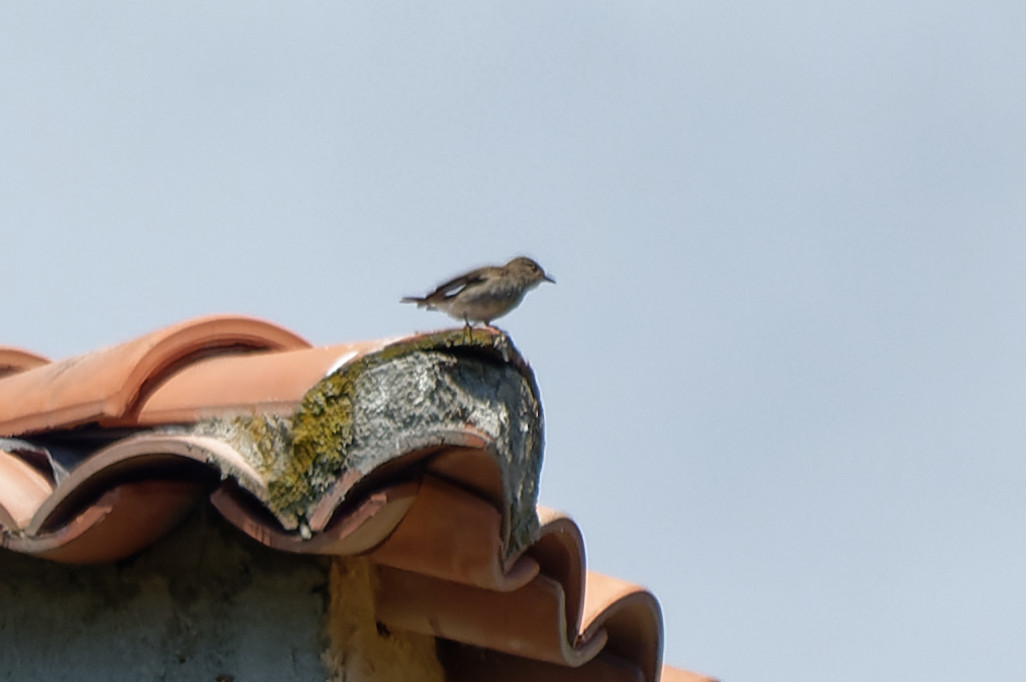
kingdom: Animalia
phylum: Chordata
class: Aves
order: Passeriformes
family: Muscicapidae
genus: Muscicapa
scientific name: Muscicapa striata
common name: Spotted flycatcher
